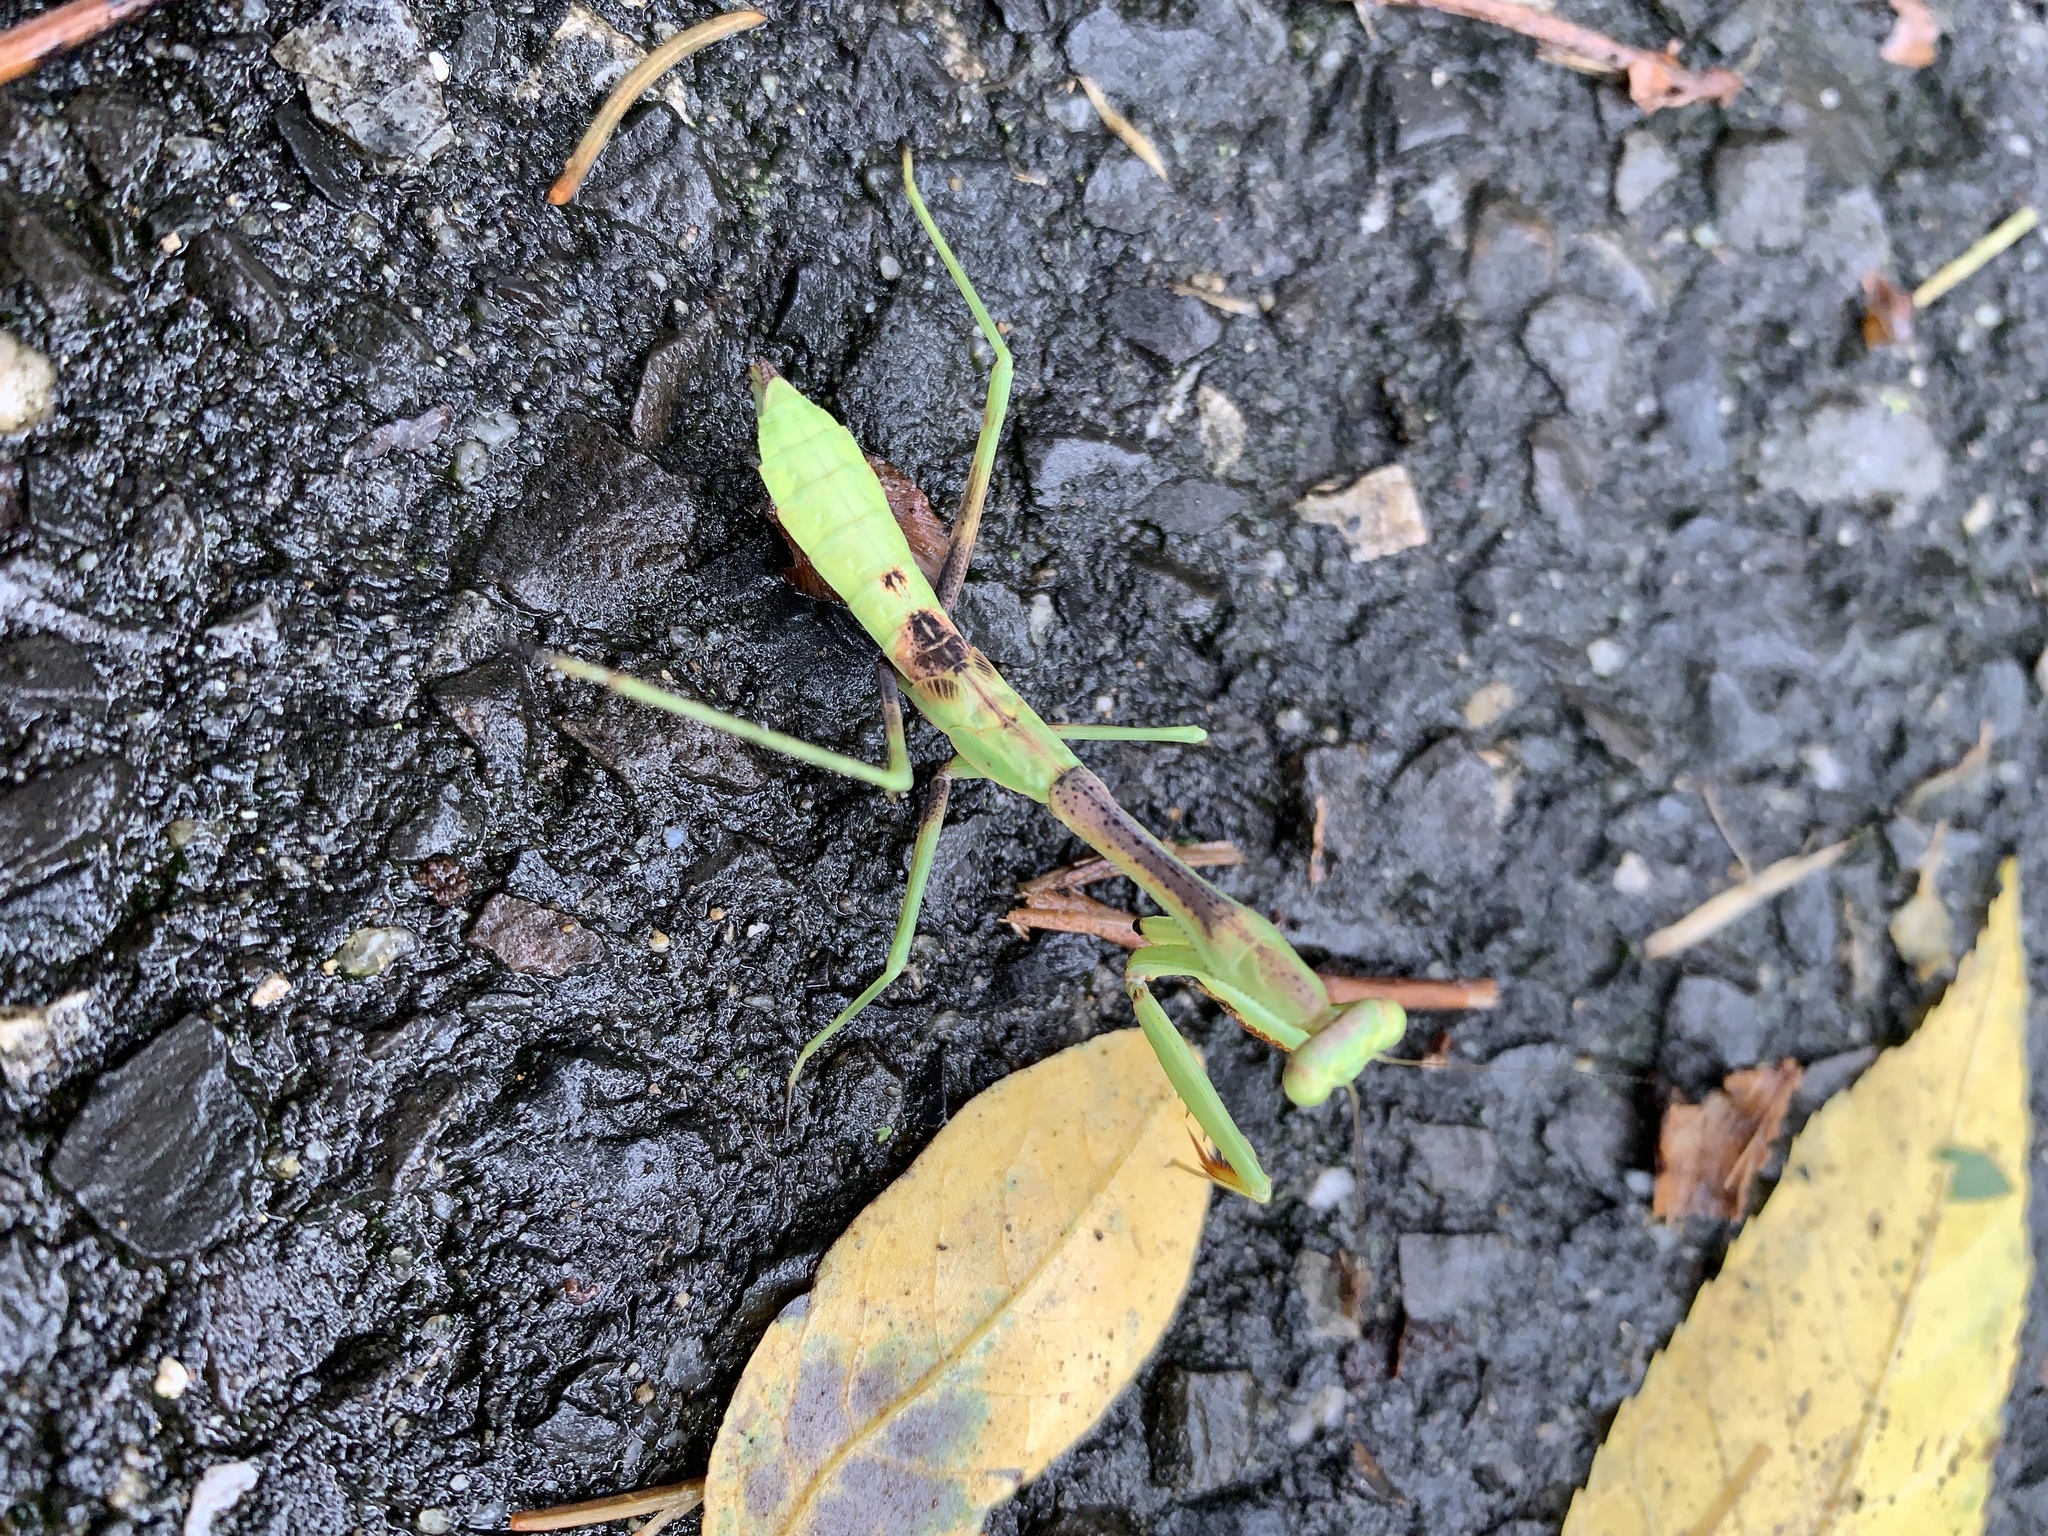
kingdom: Animalia
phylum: Arthropoda
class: Insecta
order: Mantodea
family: Mantidae
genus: Stagmomantis
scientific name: Stagmomantis carolina
